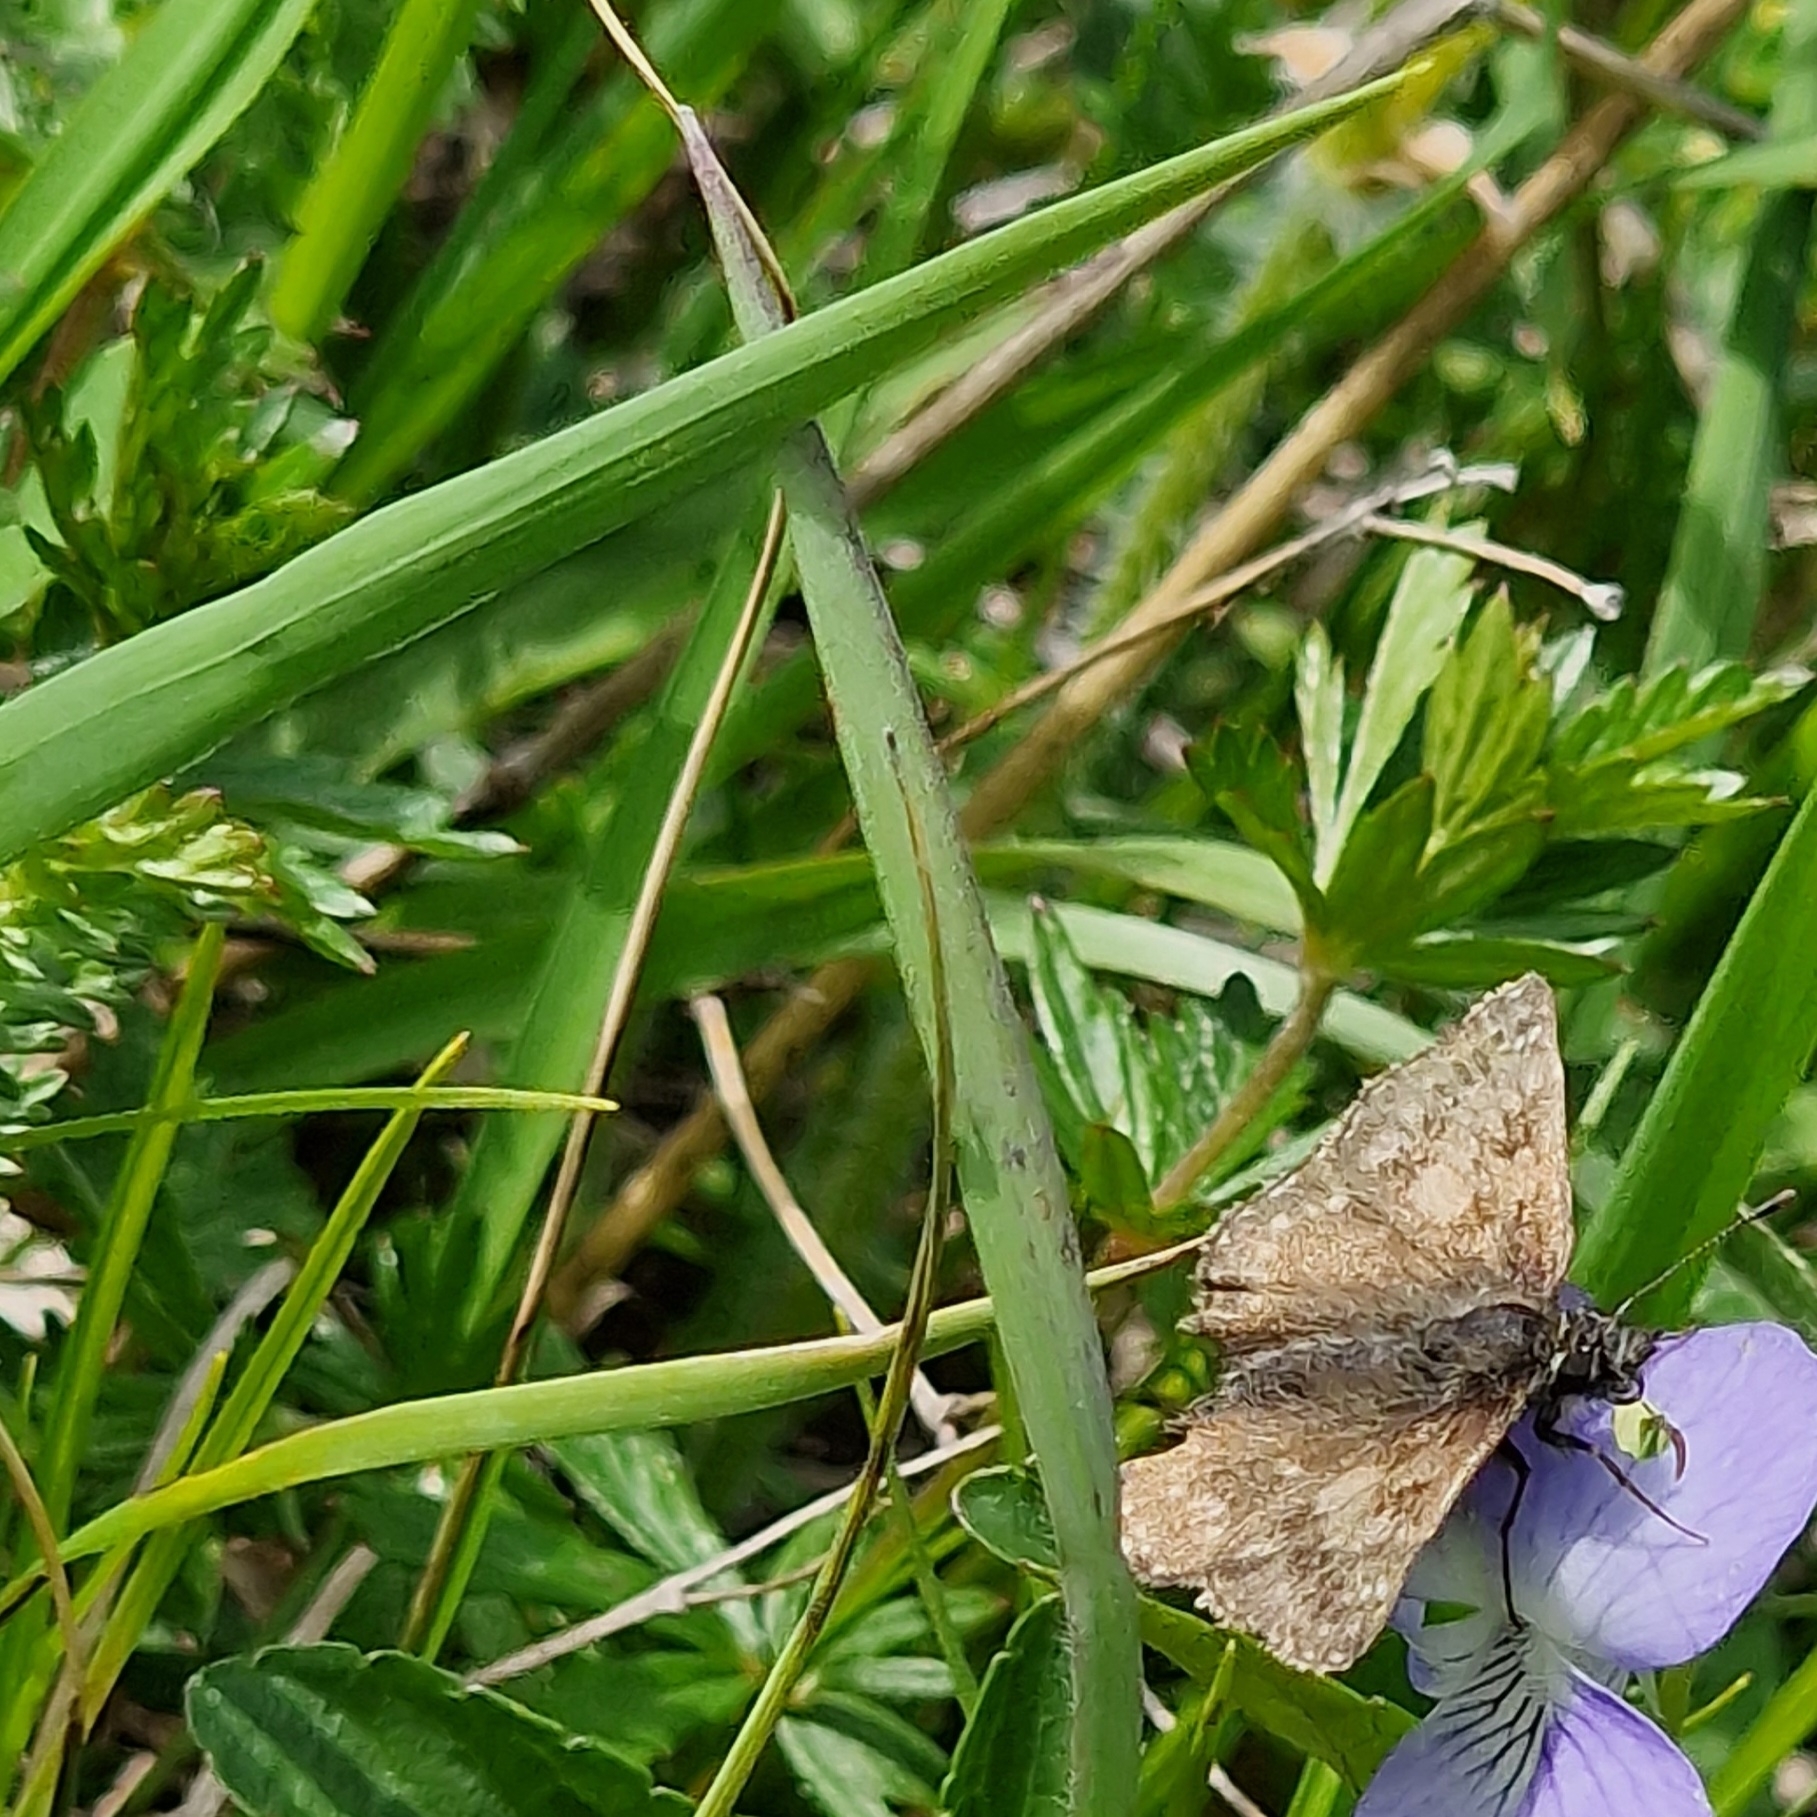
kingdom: Animalia
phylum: Arthropoda
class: Insecta
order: Lepidoptera
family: Hesperiidae
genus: Erynnis
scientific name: Erynnis tages
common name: Dingy skipper
